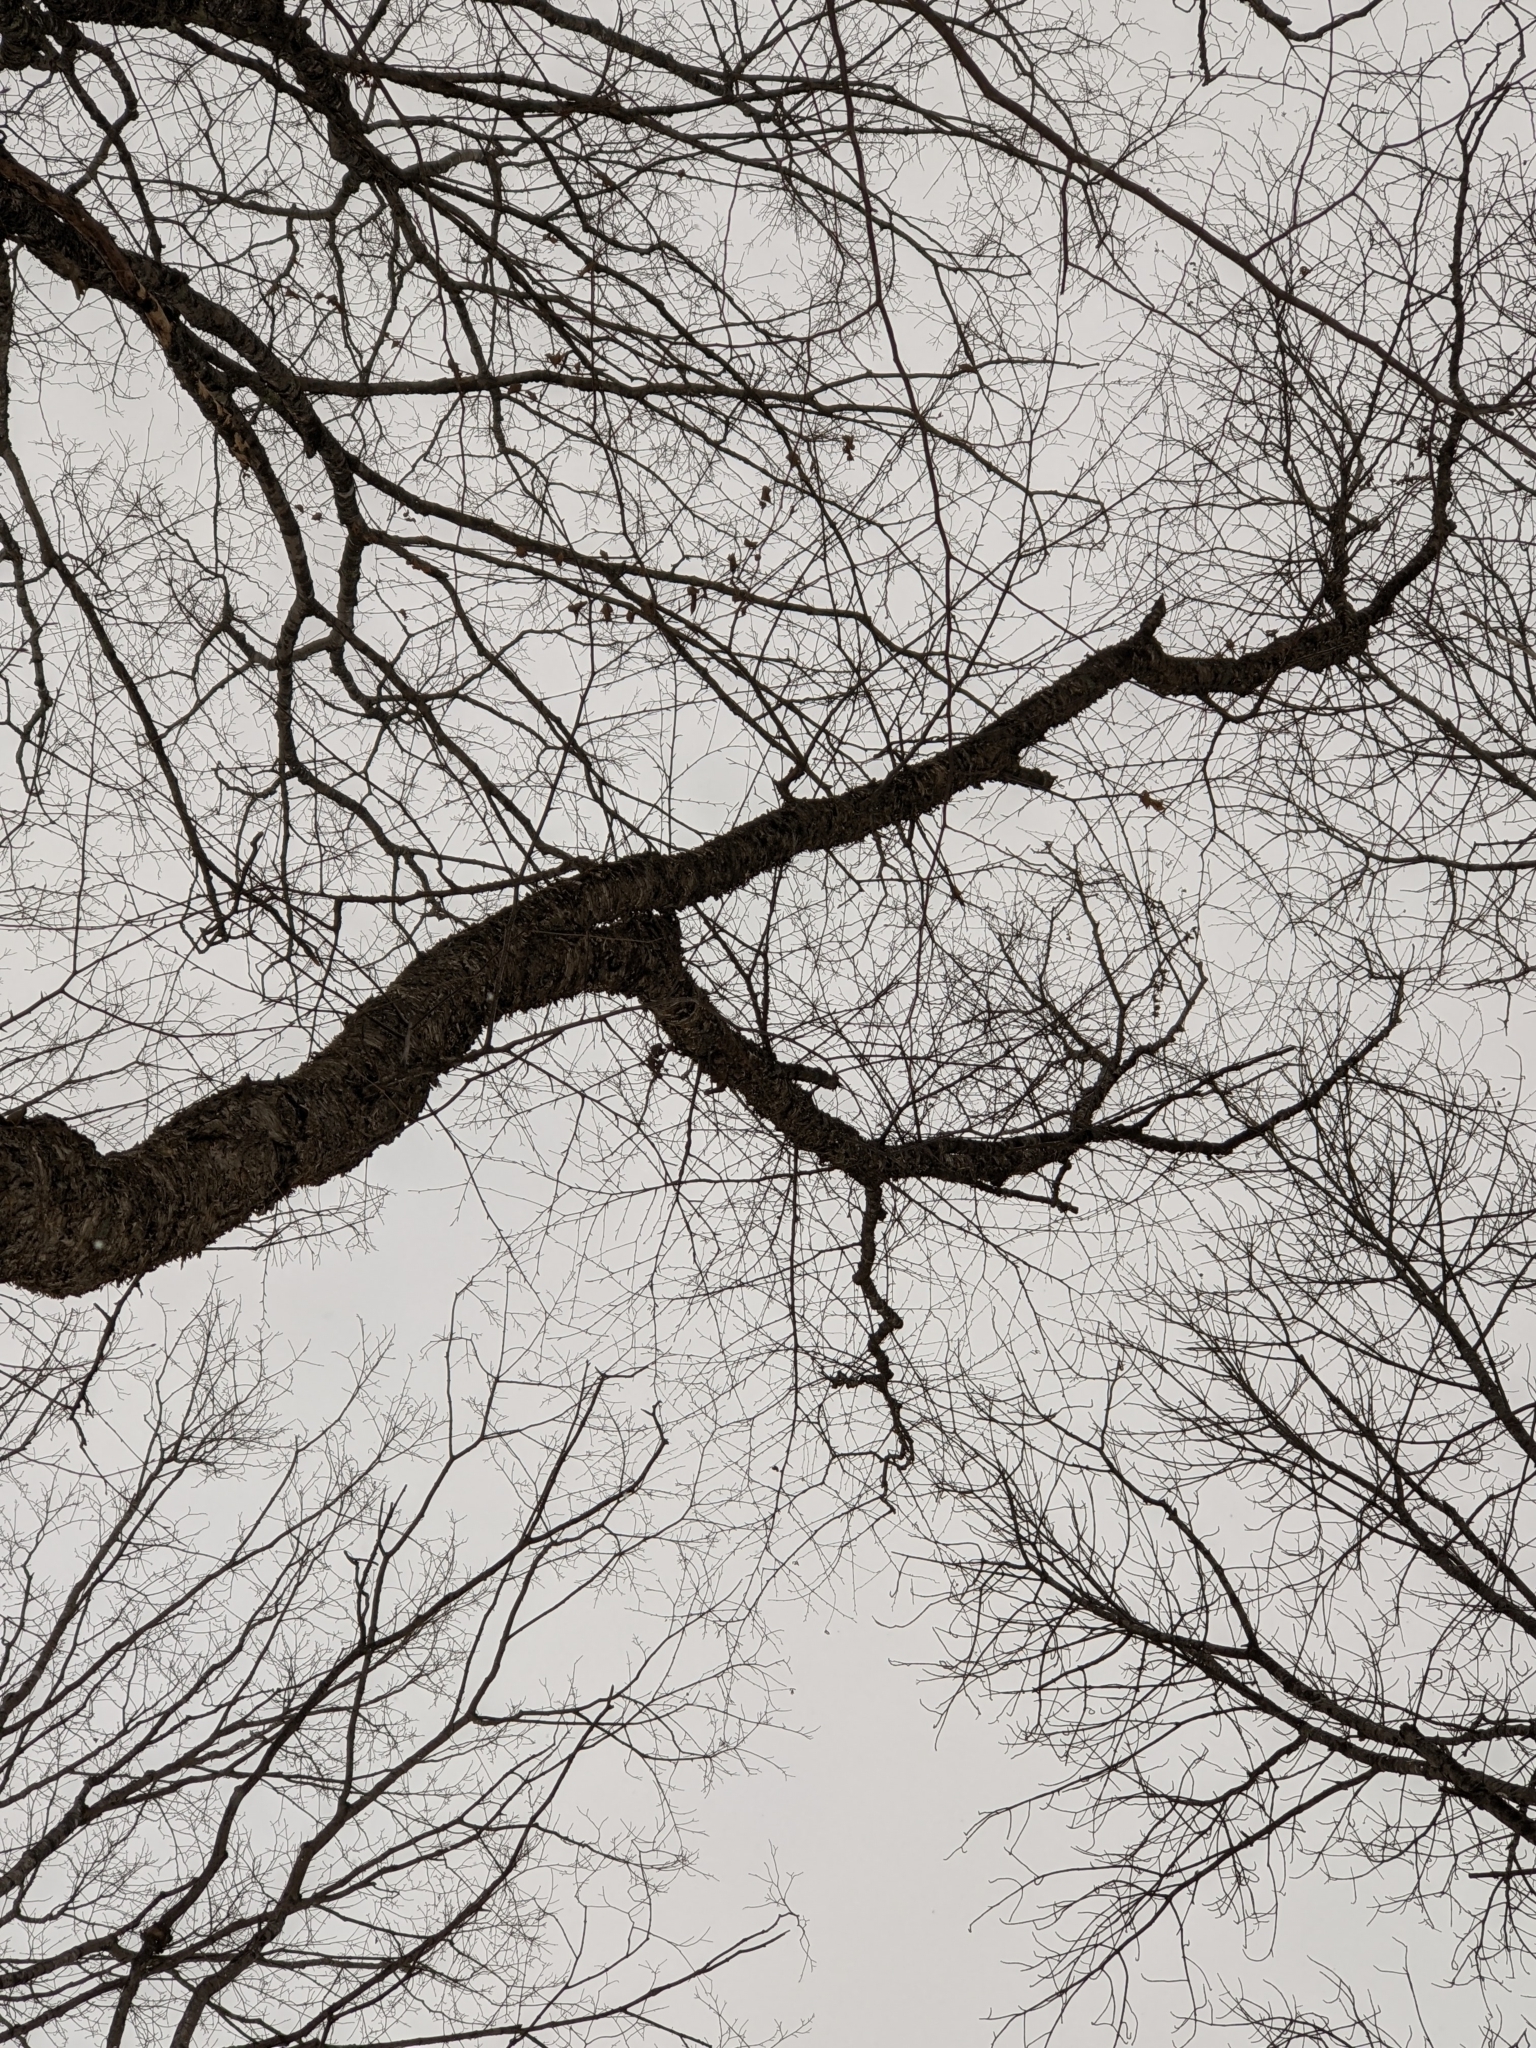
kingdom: Plantae
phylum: Tracheophyta
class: Magnoliopsida
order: Fagales
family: Betulaceae
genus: Betula
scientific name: Betula alleghaniensis
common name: Yellow birch
